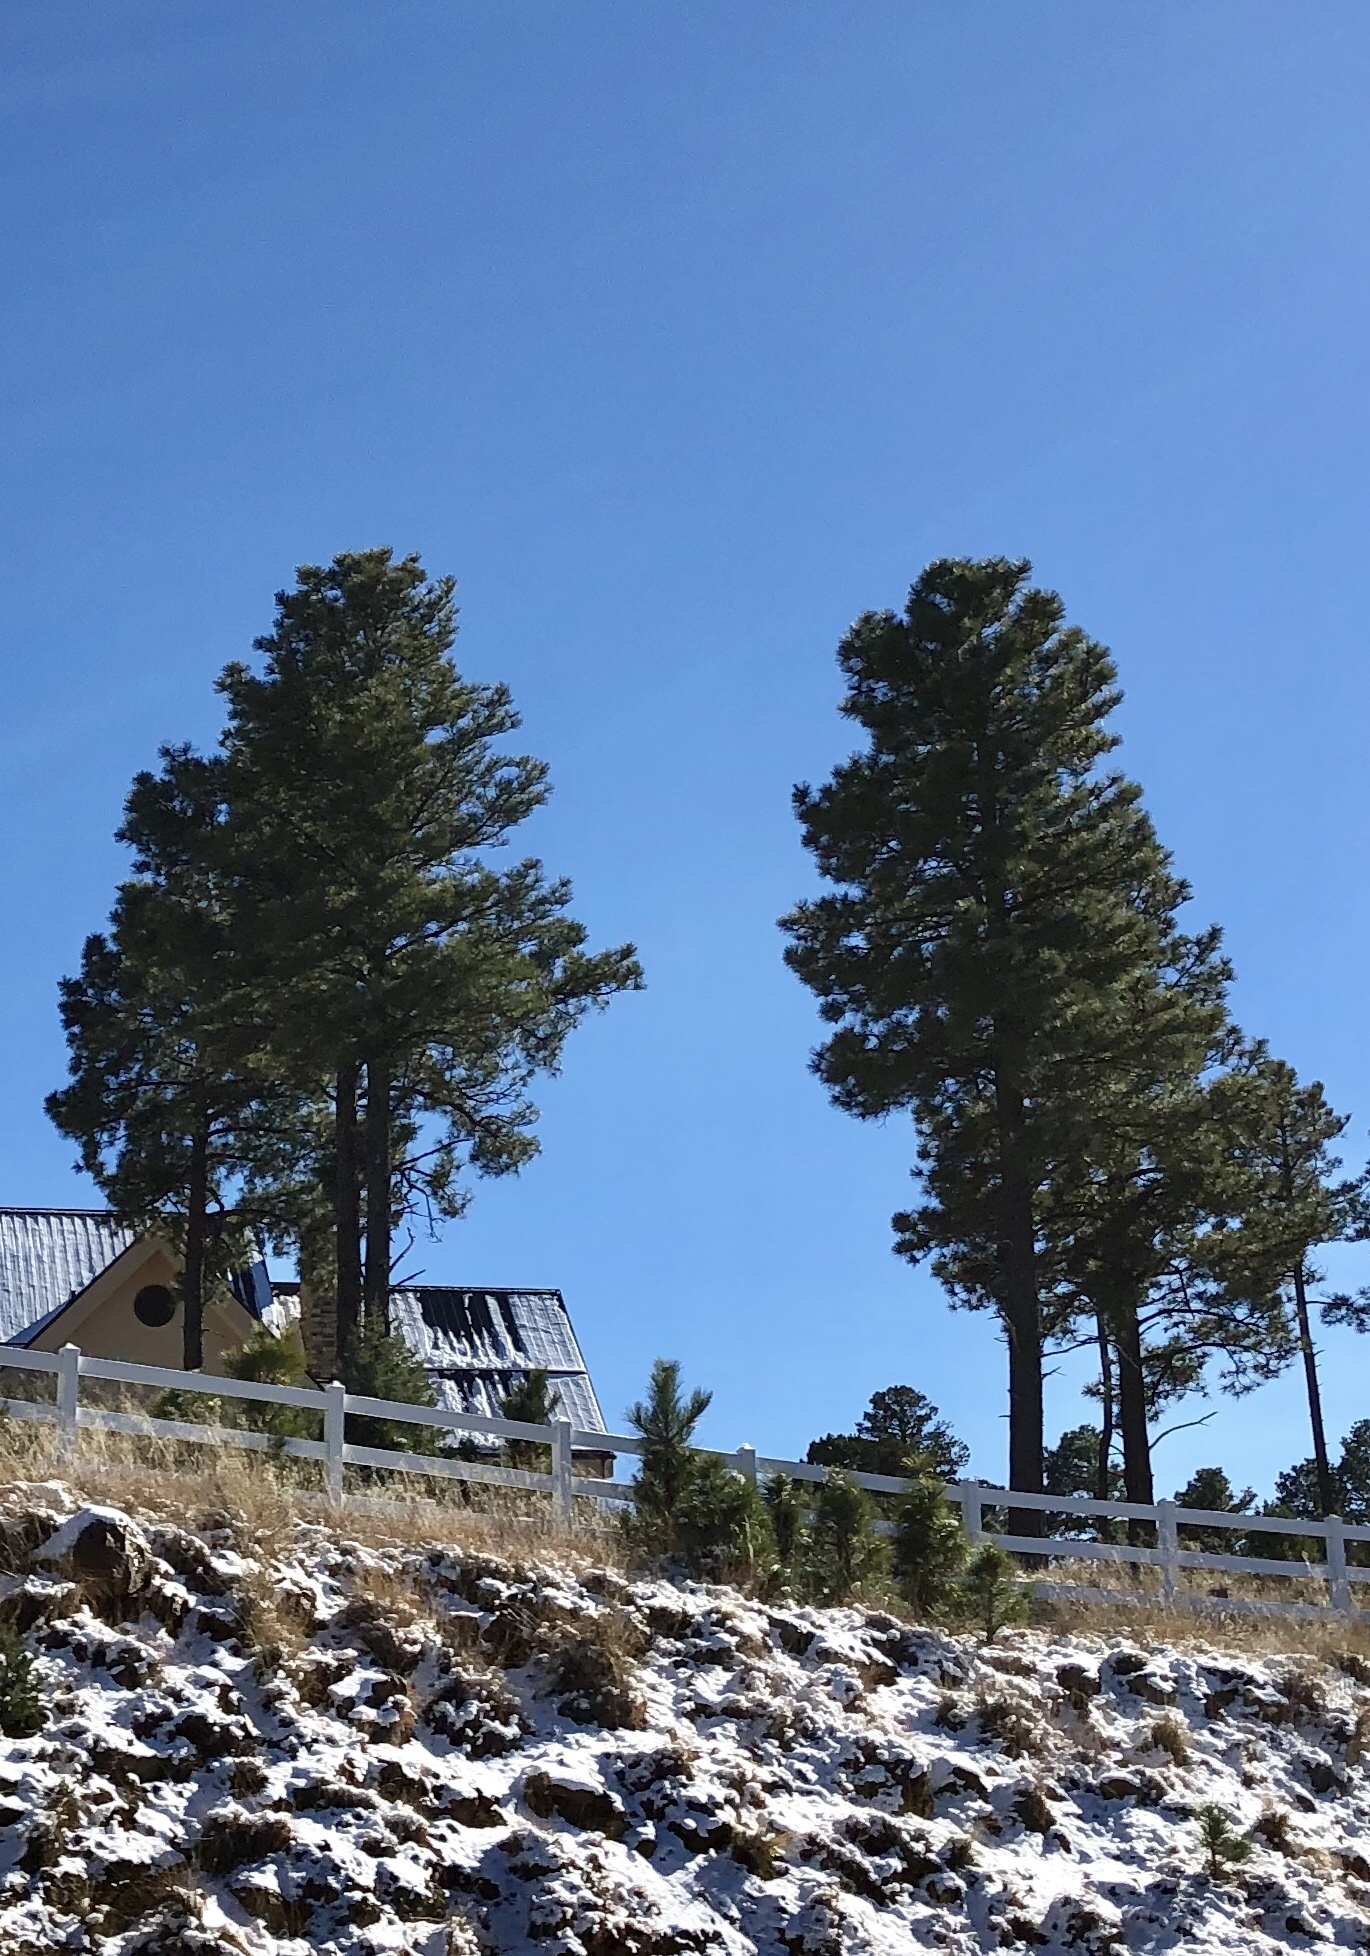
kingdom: Plantae
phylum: Tracheophyta
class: Pinopsida
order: Pinales
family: Pinaceae
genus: Pinus
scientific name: Pinus ponderosa
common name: Western yellow-pine
